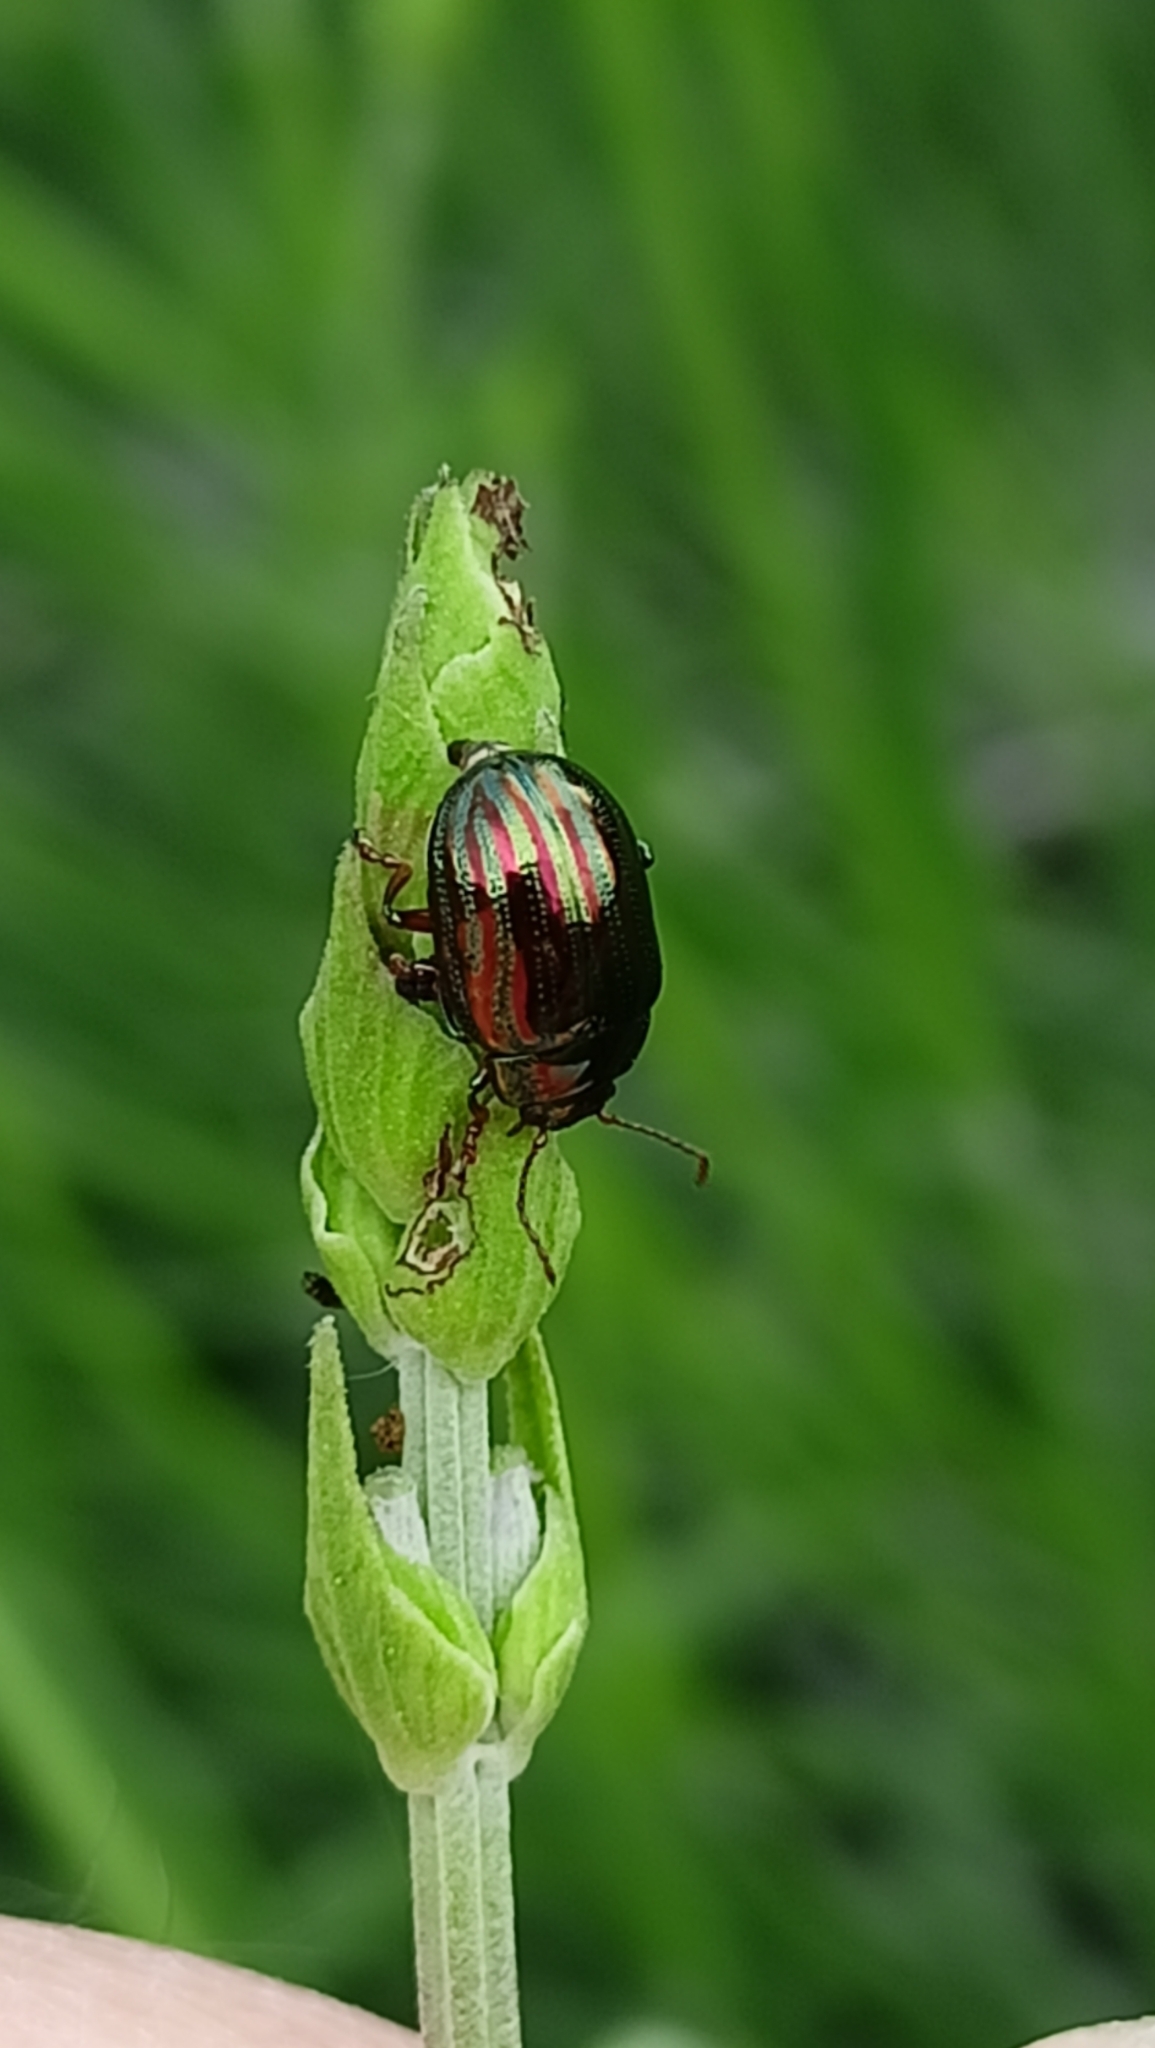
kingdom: Animalia
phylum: Arthropoda
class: Insecta
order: Coleoptera
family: Chrysomelidae
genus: Chrysolina
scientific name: Chrysolina americana
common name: Rosemary beetle
